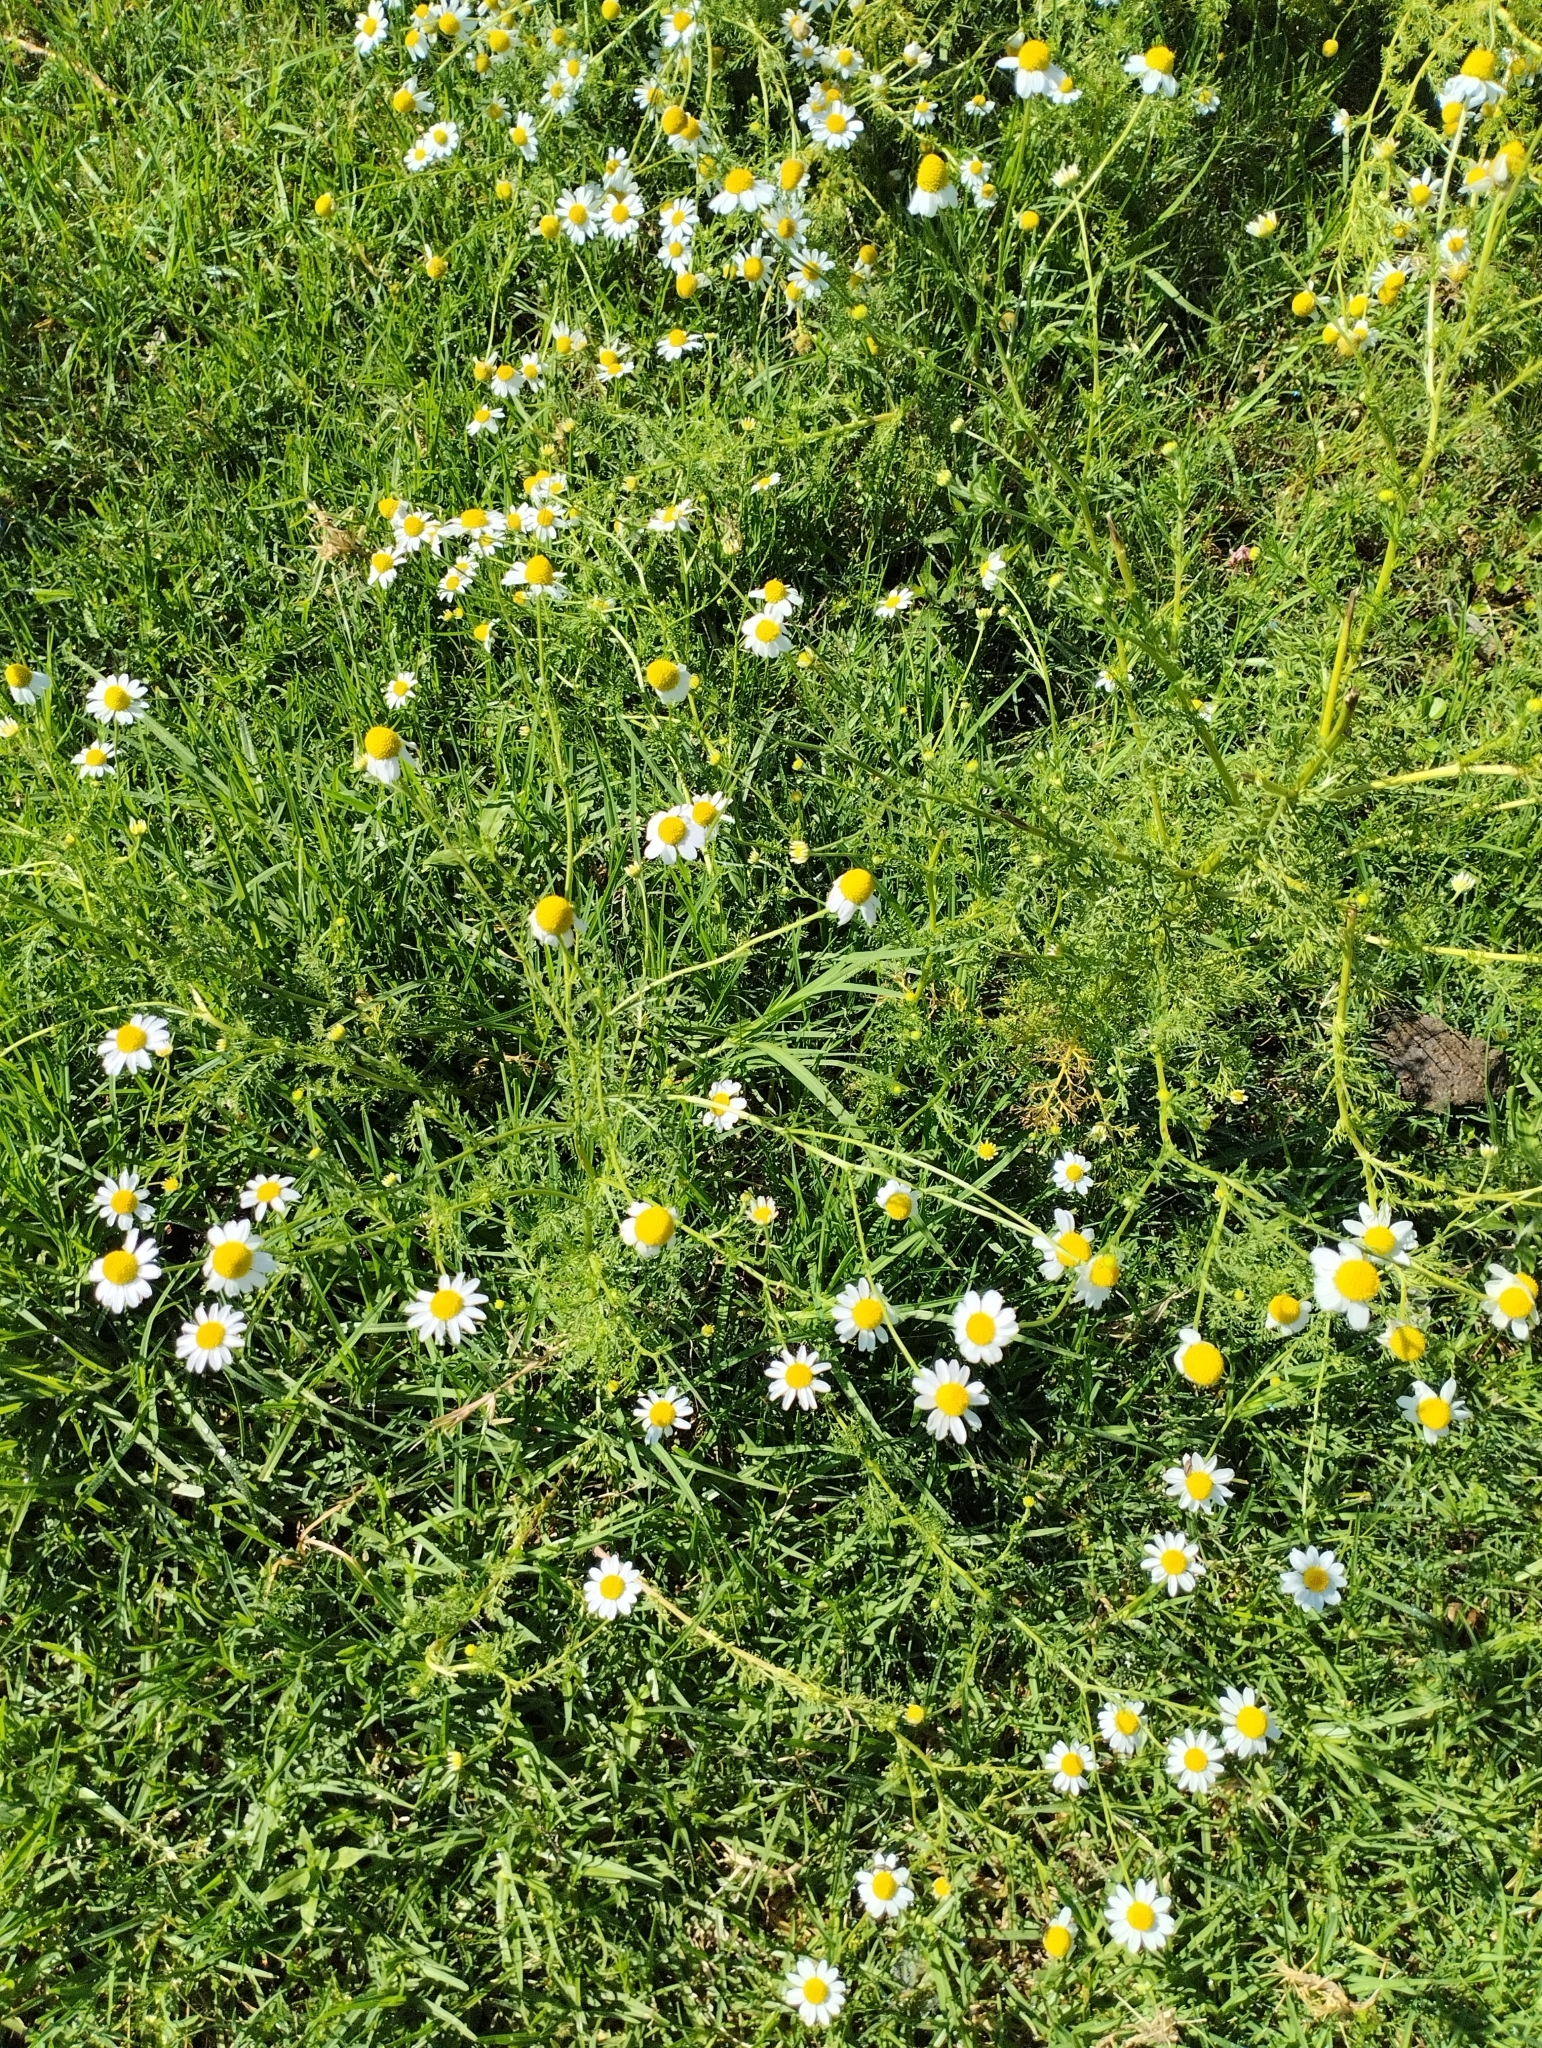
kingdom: Plantae
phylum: Tracheophyta
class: Magnoliopsida
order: Asterales
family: Asteraceae
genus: Anthemis
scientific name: Anthemis cotula
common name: Stinking chamomile
